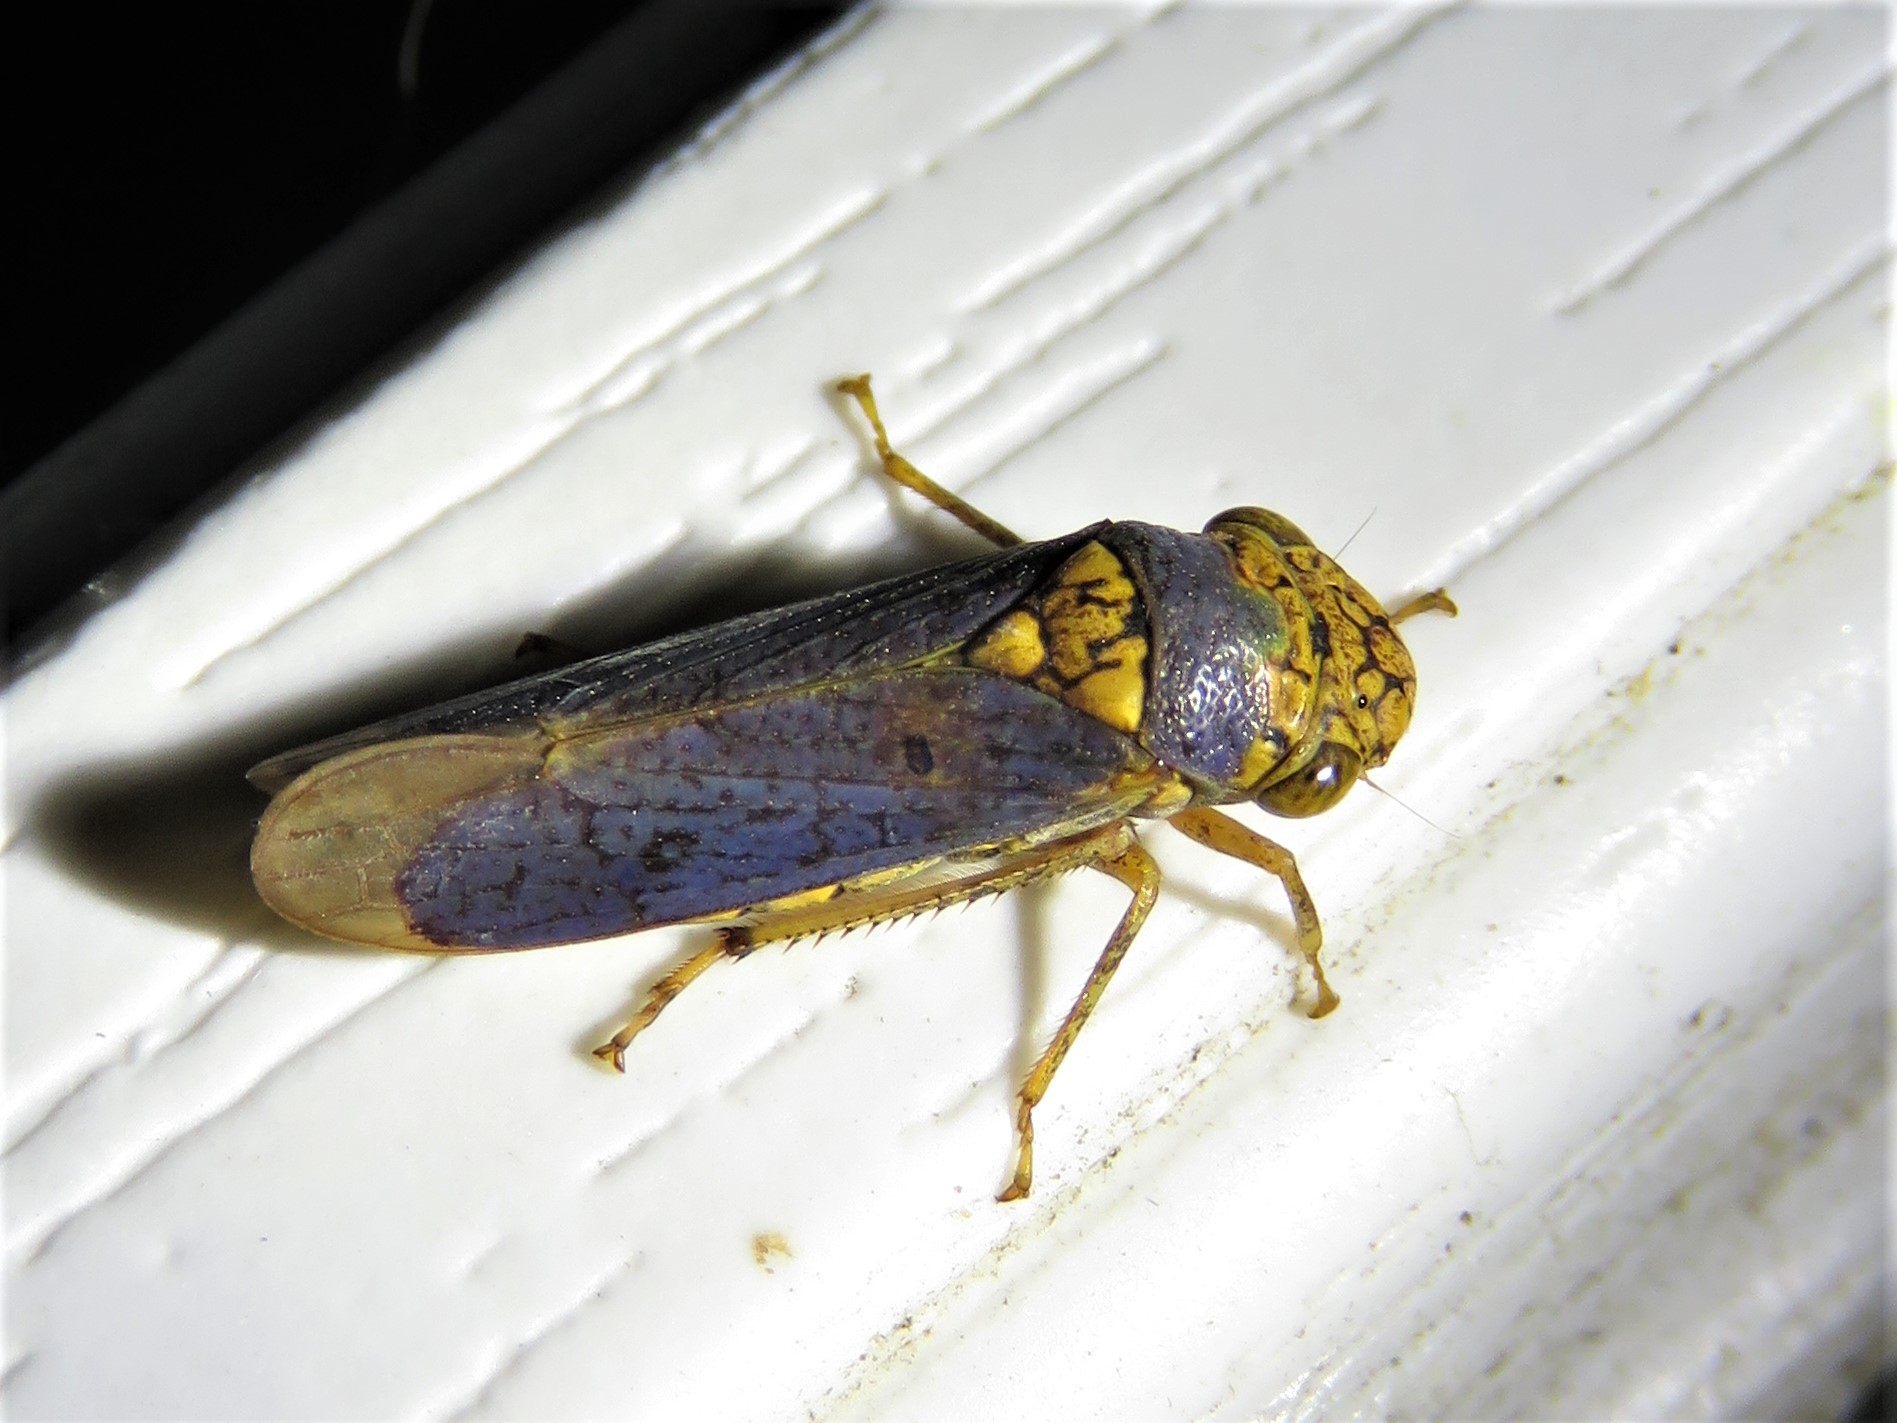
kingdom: Animalia
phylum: Arthropoda
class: Insecta
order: Hemiptera
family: Cicadellidae
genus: Oncometopia
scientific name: Oncometopia orbona
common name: Broad-headed sharpshooter
